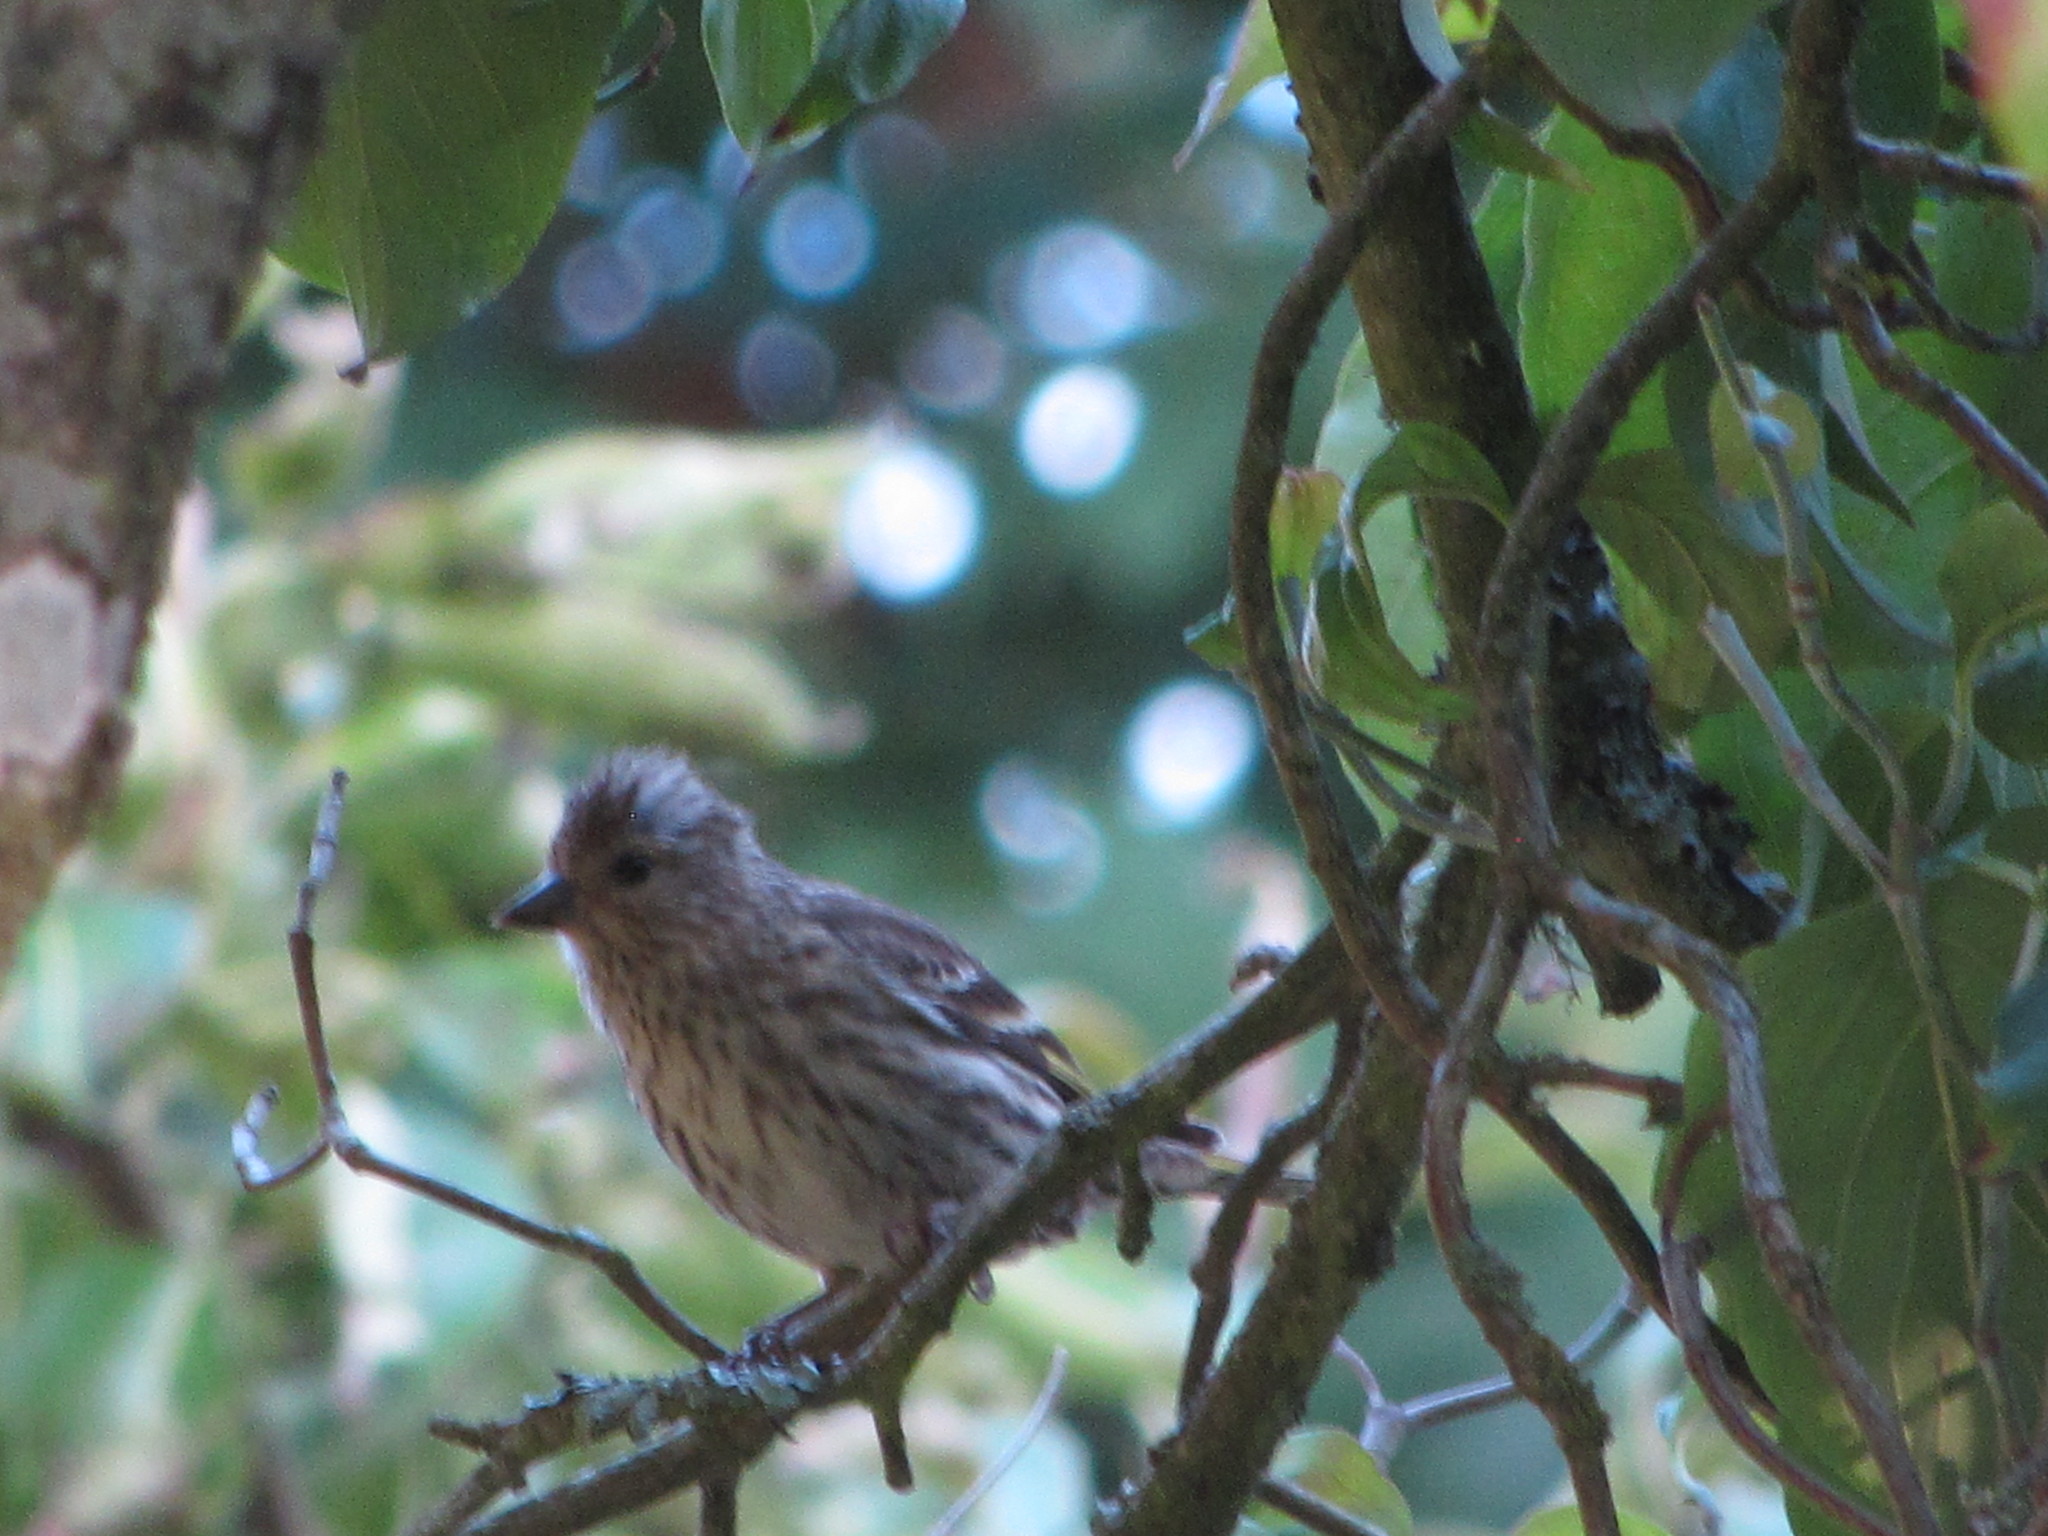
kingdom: Animalia
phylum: Chordata
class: Aves
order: Passeriformes
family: Fringillidae
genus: Spinus
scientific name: Spinus pinus
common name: Pine siskin
